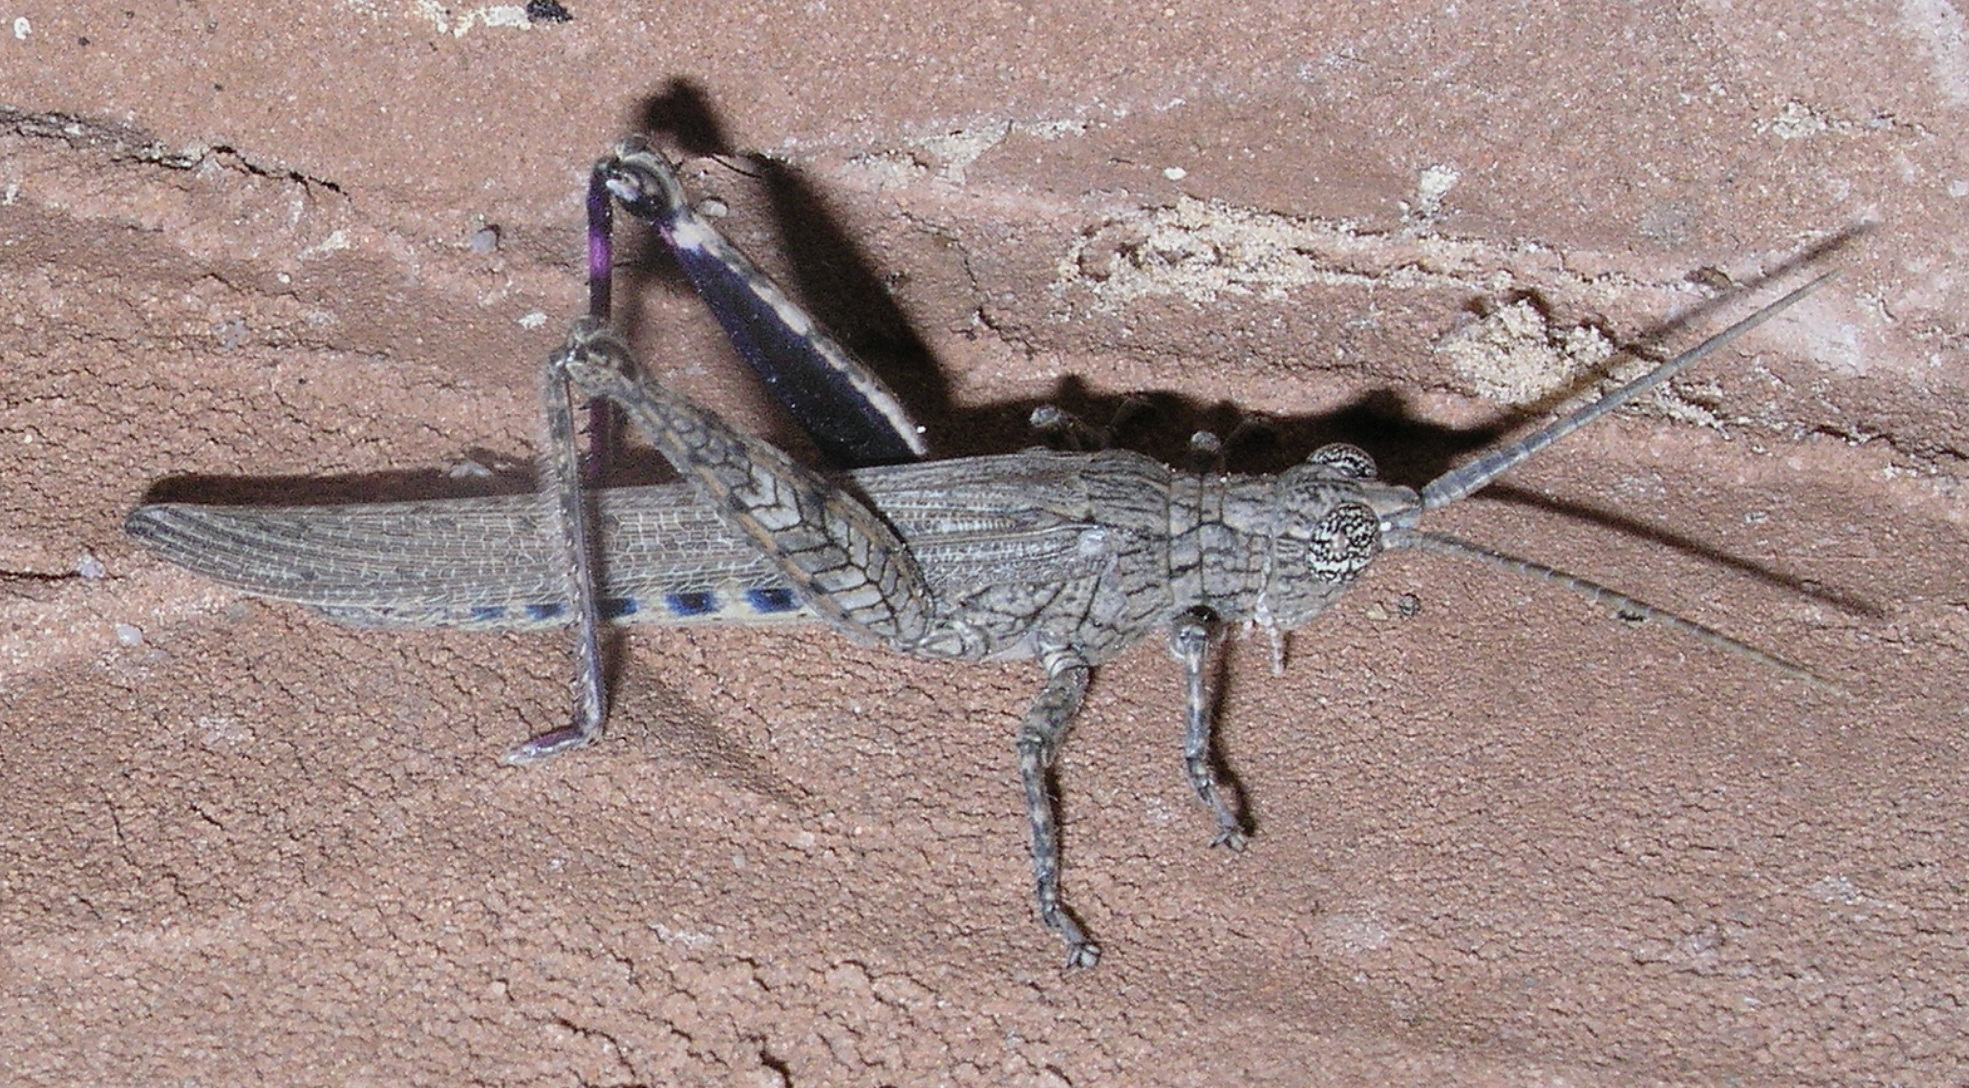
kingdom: Animalia
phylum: Arthropoda
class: Insecta
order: Orthoptera
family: Acrididae
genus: Coryphistes
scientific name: Coryphistes ruricola
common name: Bark-mimicking grasshopper
